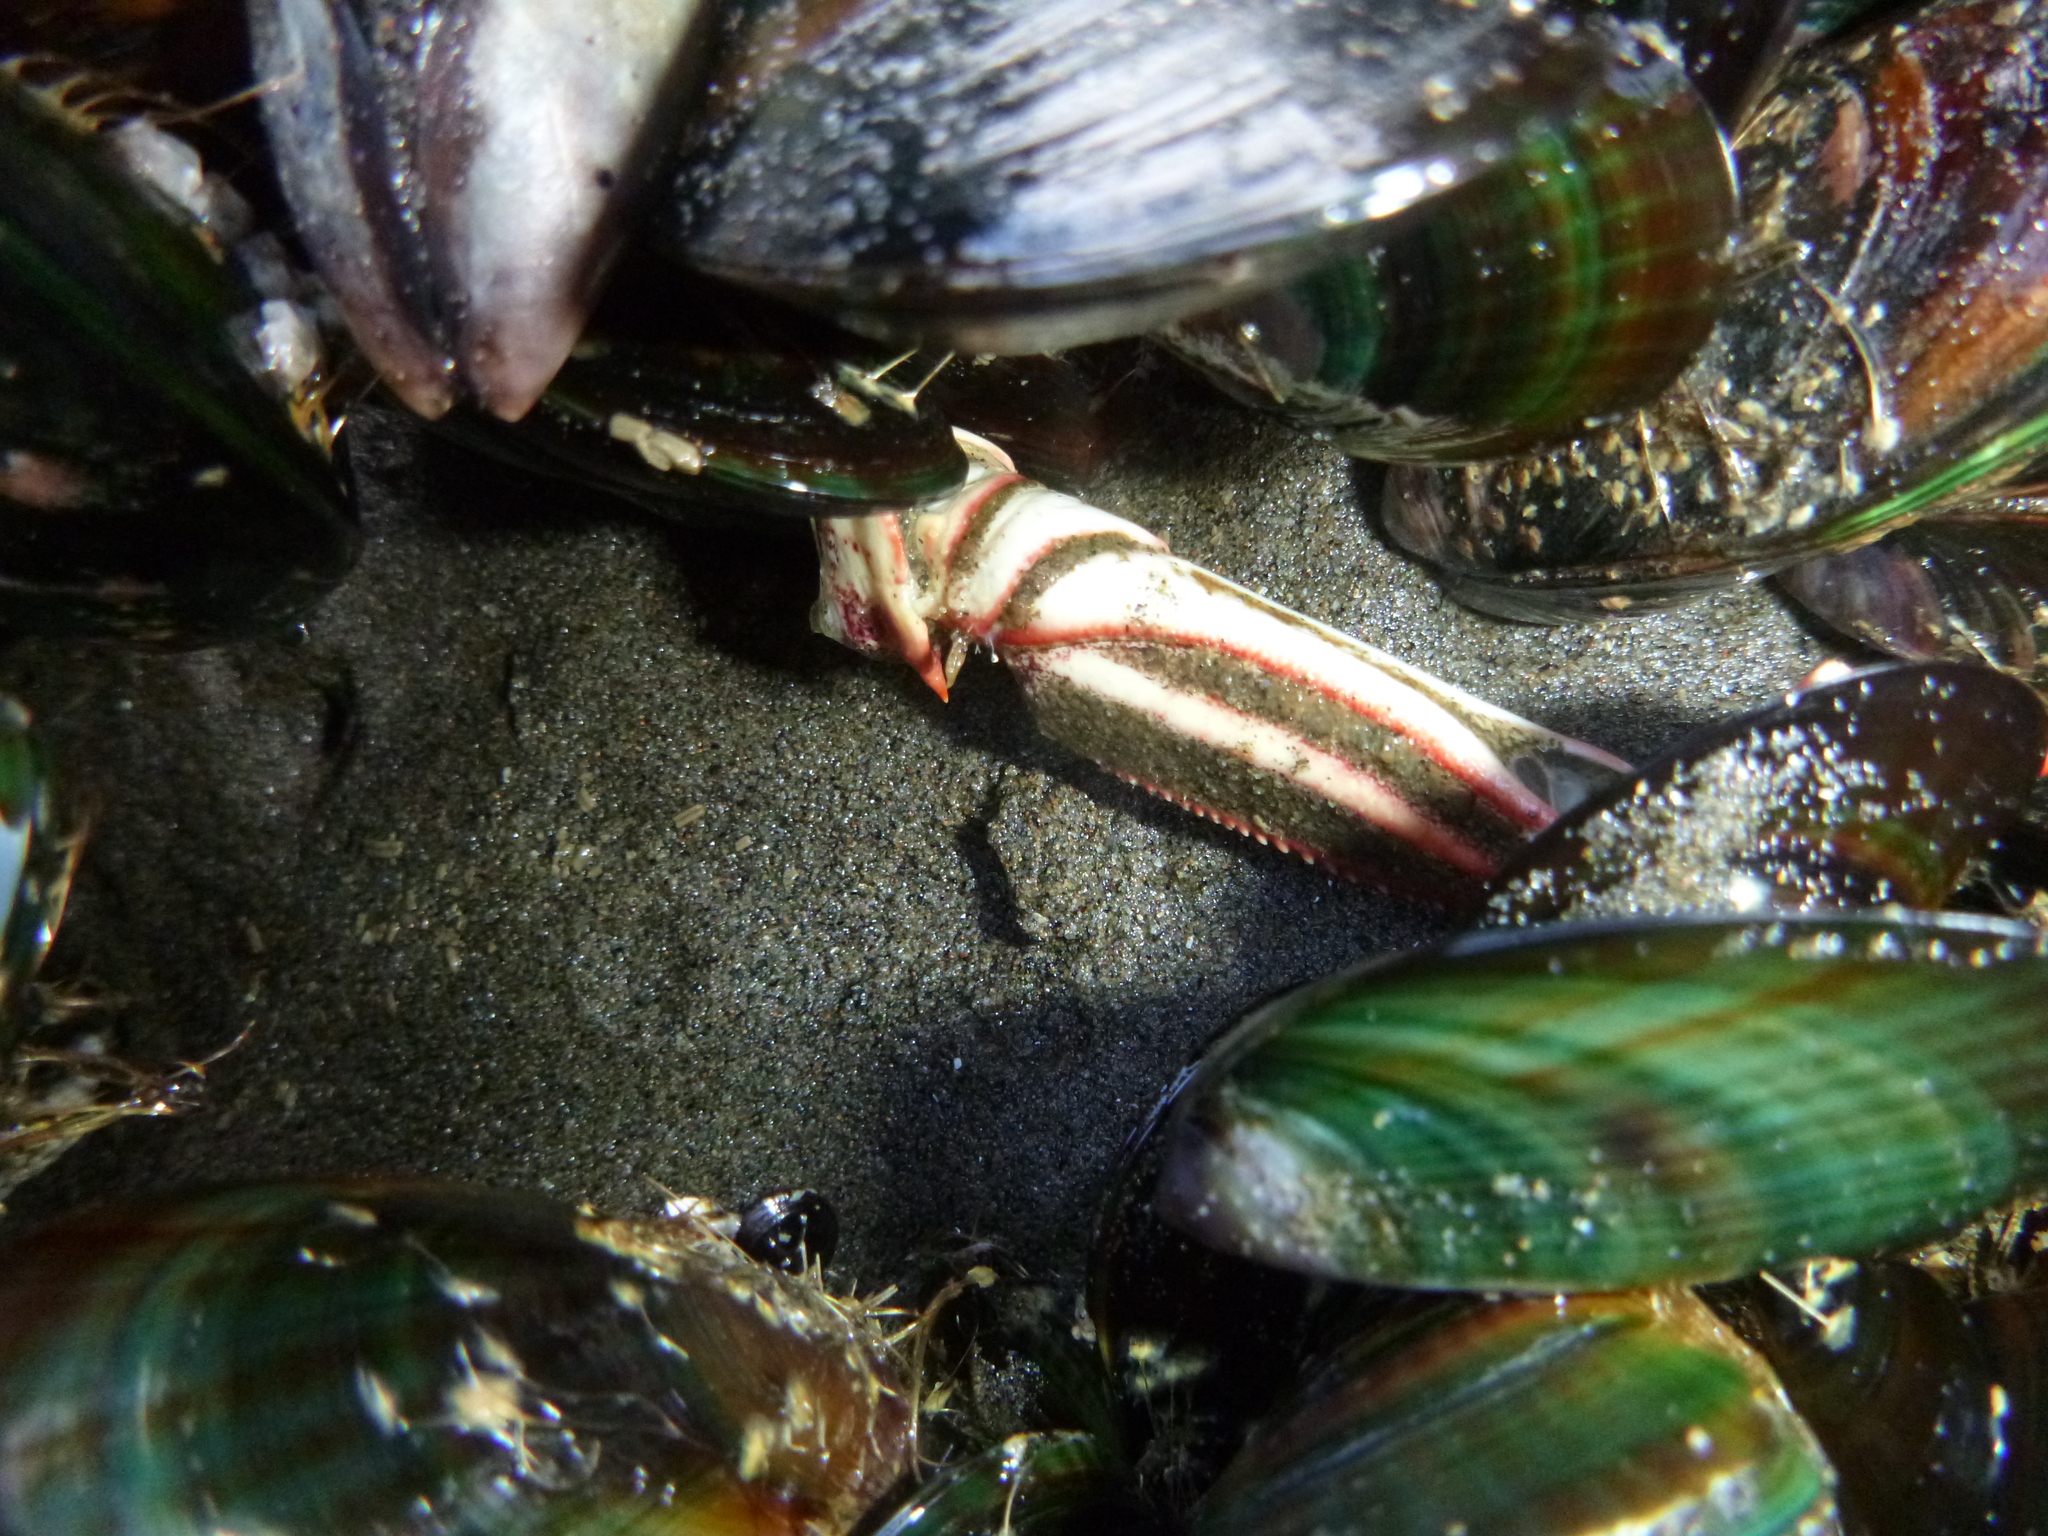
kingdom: Animalia
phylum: Arthropoda
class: Malacostraca
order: Decapoda
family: Plagusiidae
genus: Guinusia
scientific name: Guinusia chabrus
